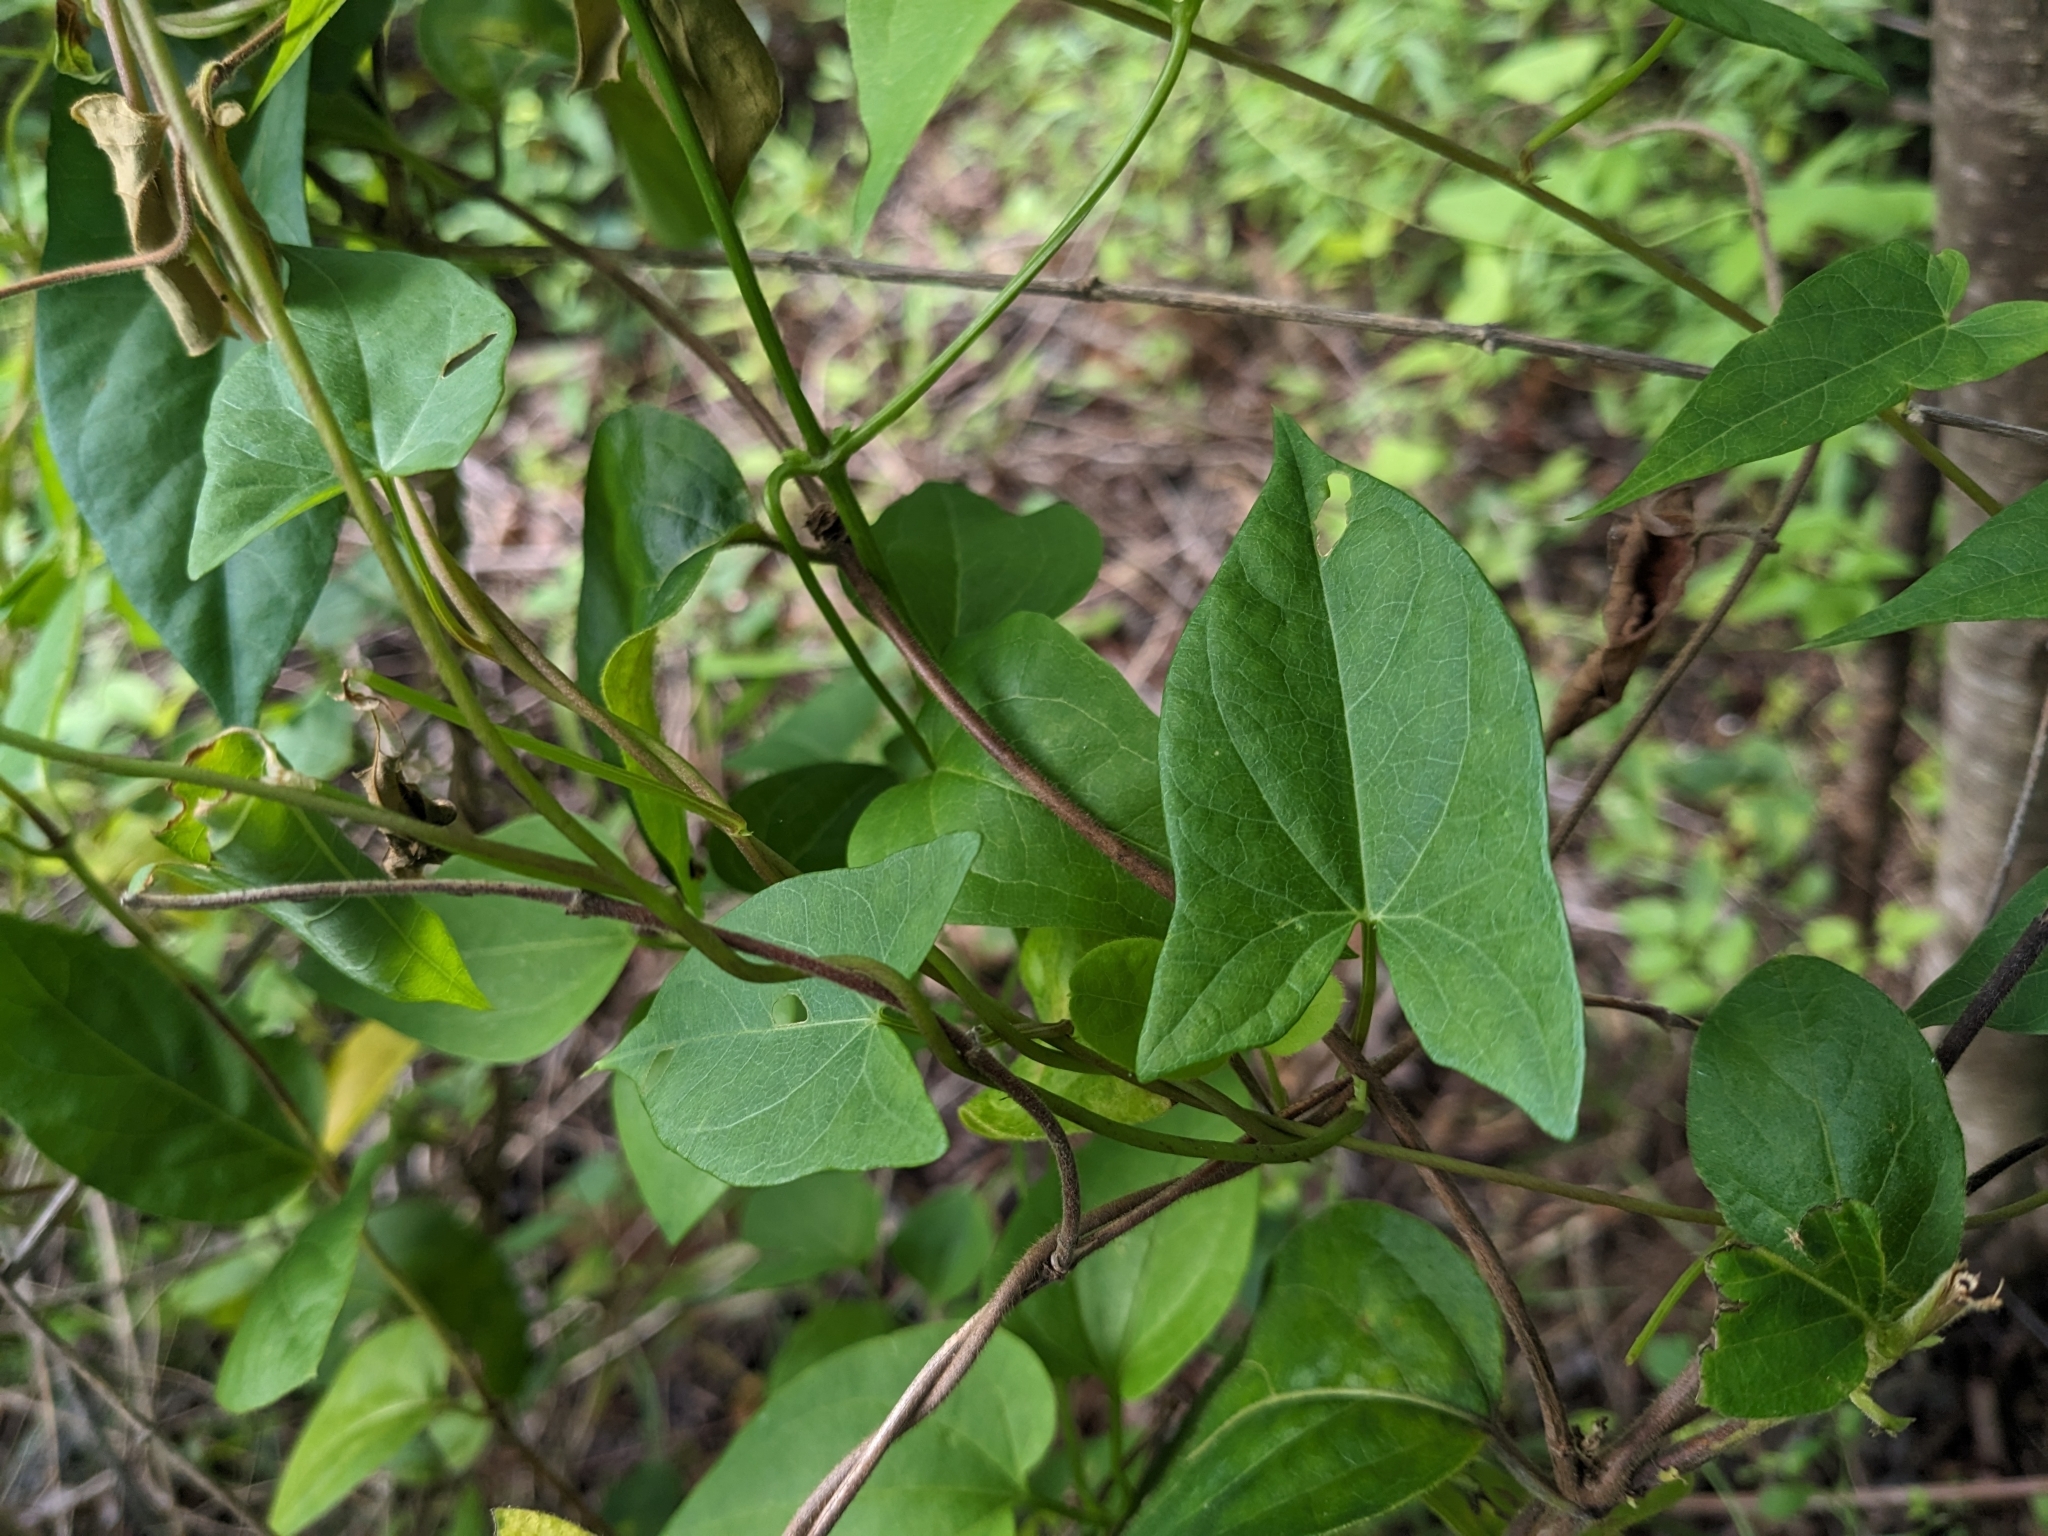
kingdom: Plantae
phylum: Tracheophyta
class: Magnoliopsida
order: Solanales
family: Convolvulaceae
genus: Calystegia
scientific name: Calystegia sepium
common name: Hedge bindweed
